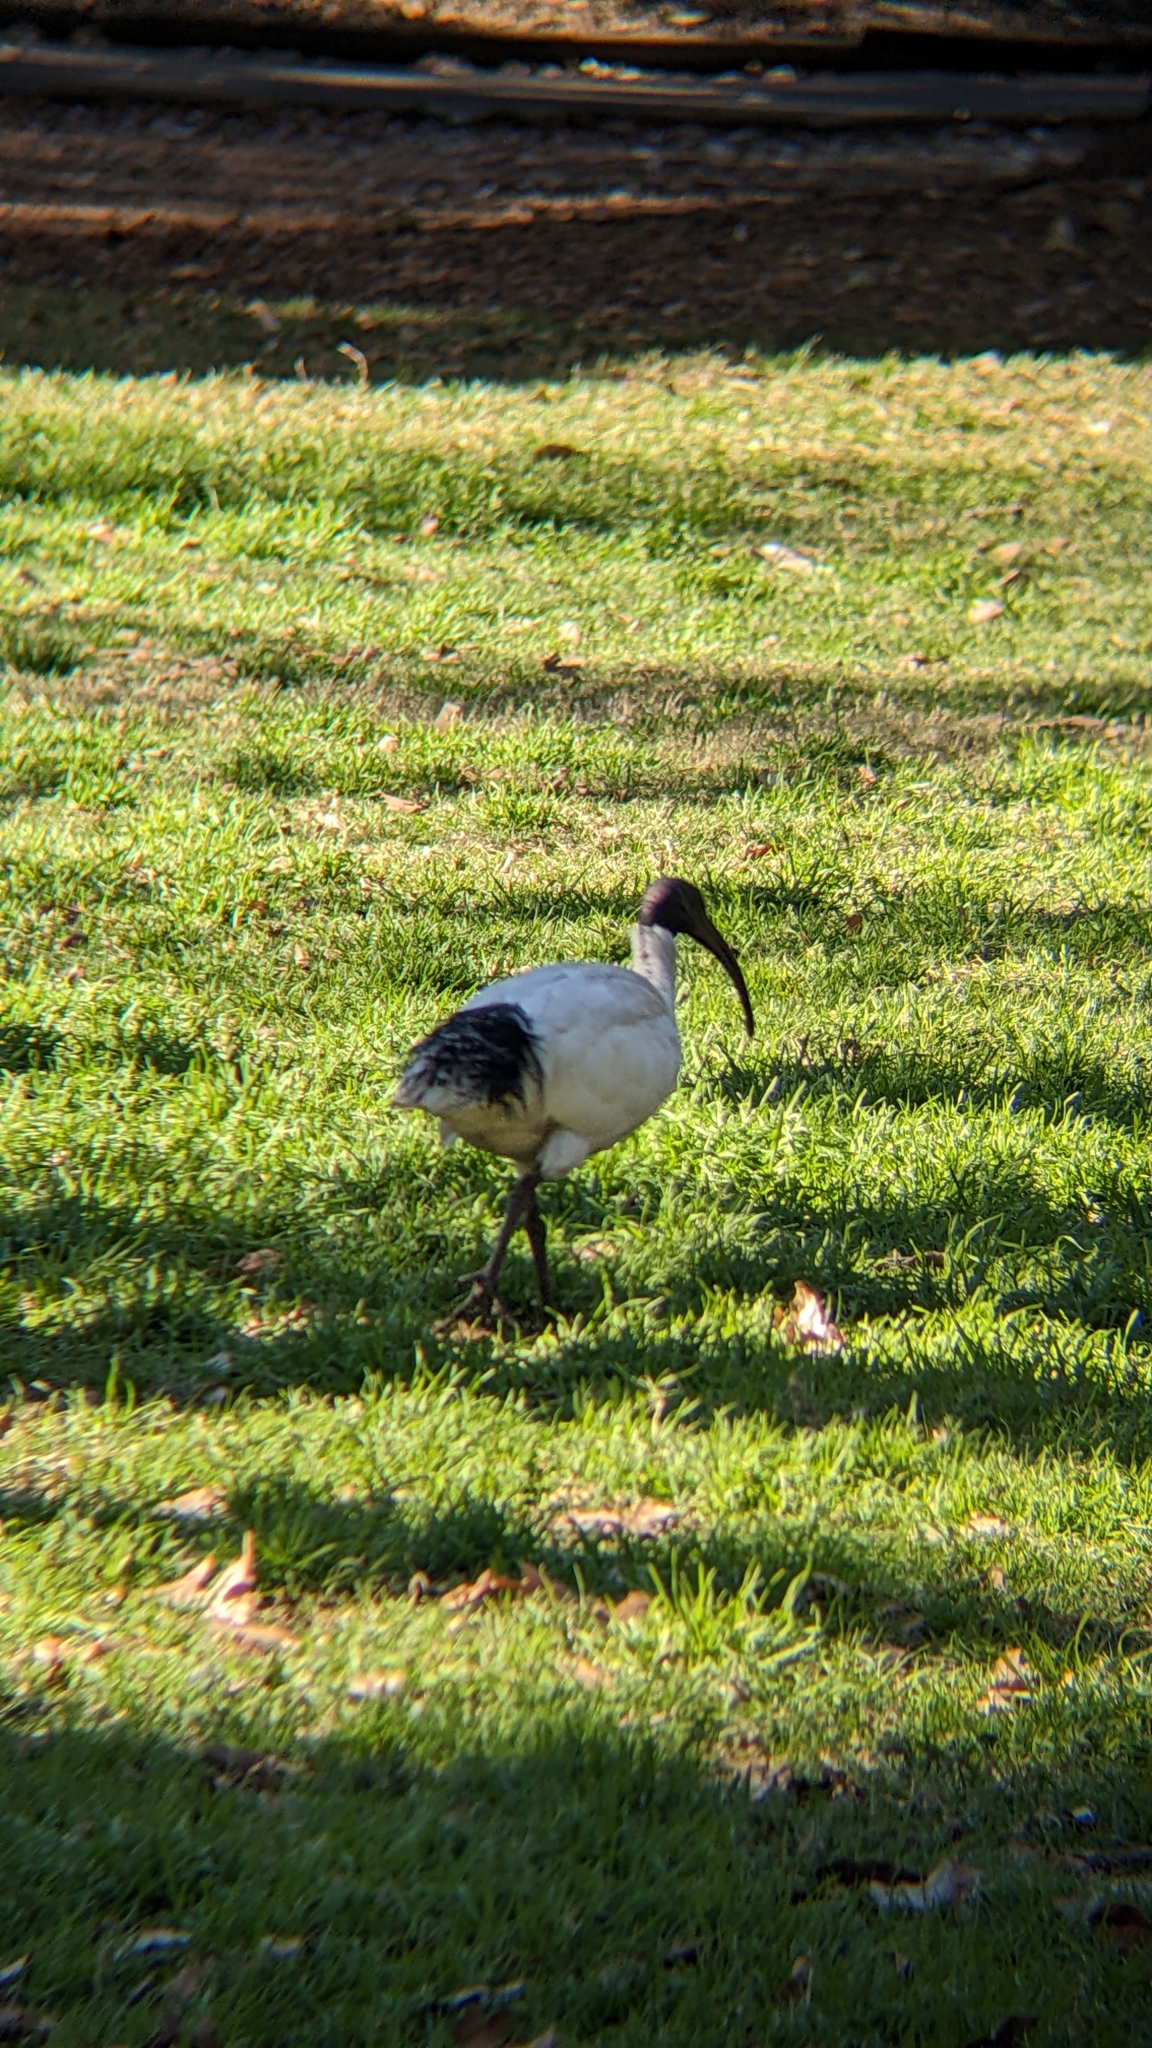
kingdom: Animalia
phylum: Chordata
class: Aves
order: Pelecaniformes
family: Threskiornithidae
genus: Threskiornis
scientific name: Threskiornis molucca
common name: Australian white ibis
